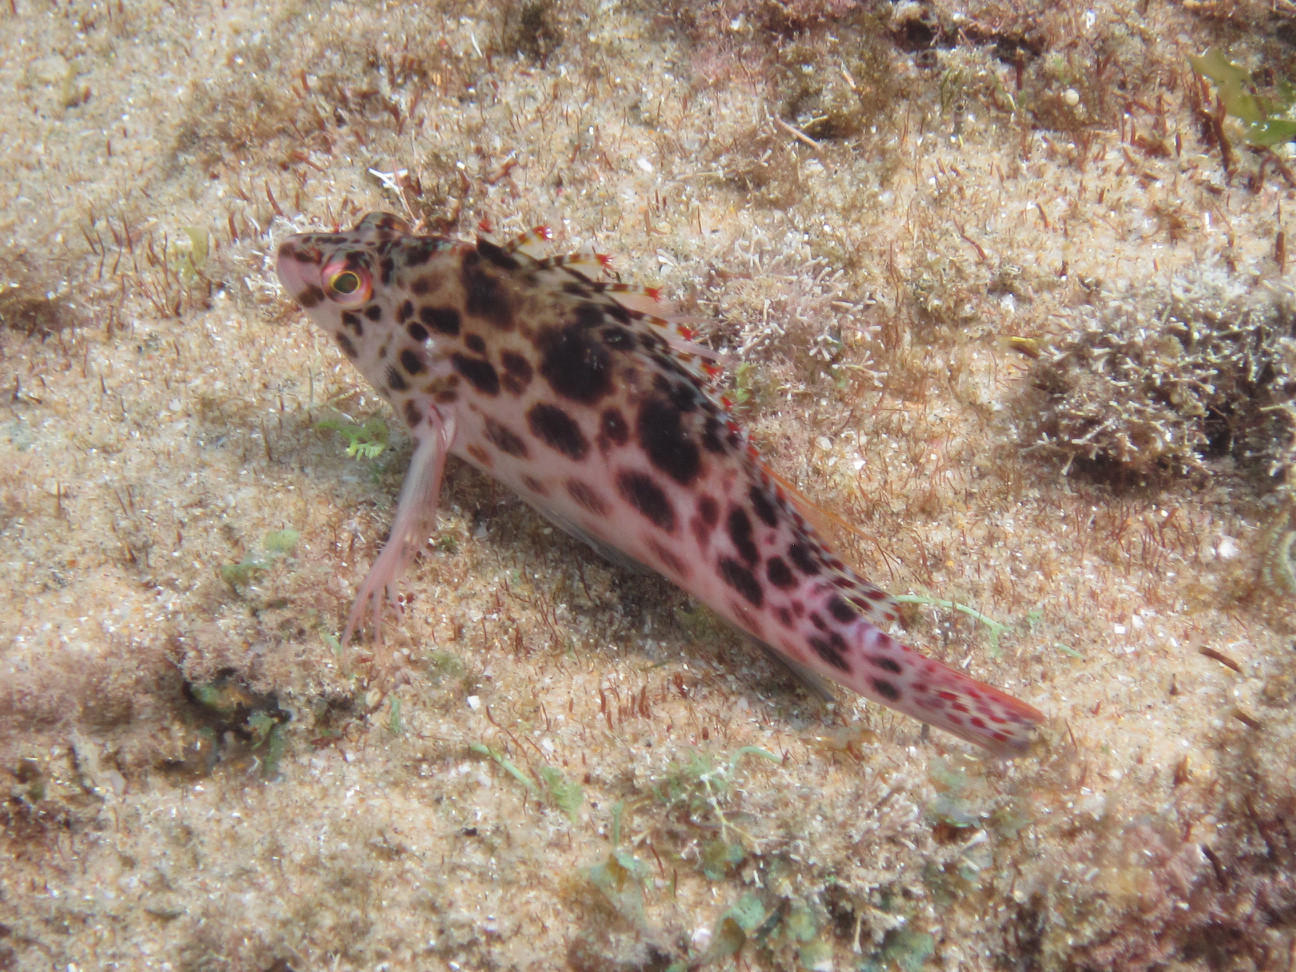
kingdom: Animalia
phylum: Chordata
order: Perciformes
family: Cirrhitidae
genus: Cirrhitichthys
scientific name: Cirrhitichthys oxycephalus
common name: Spotted hawkfish
